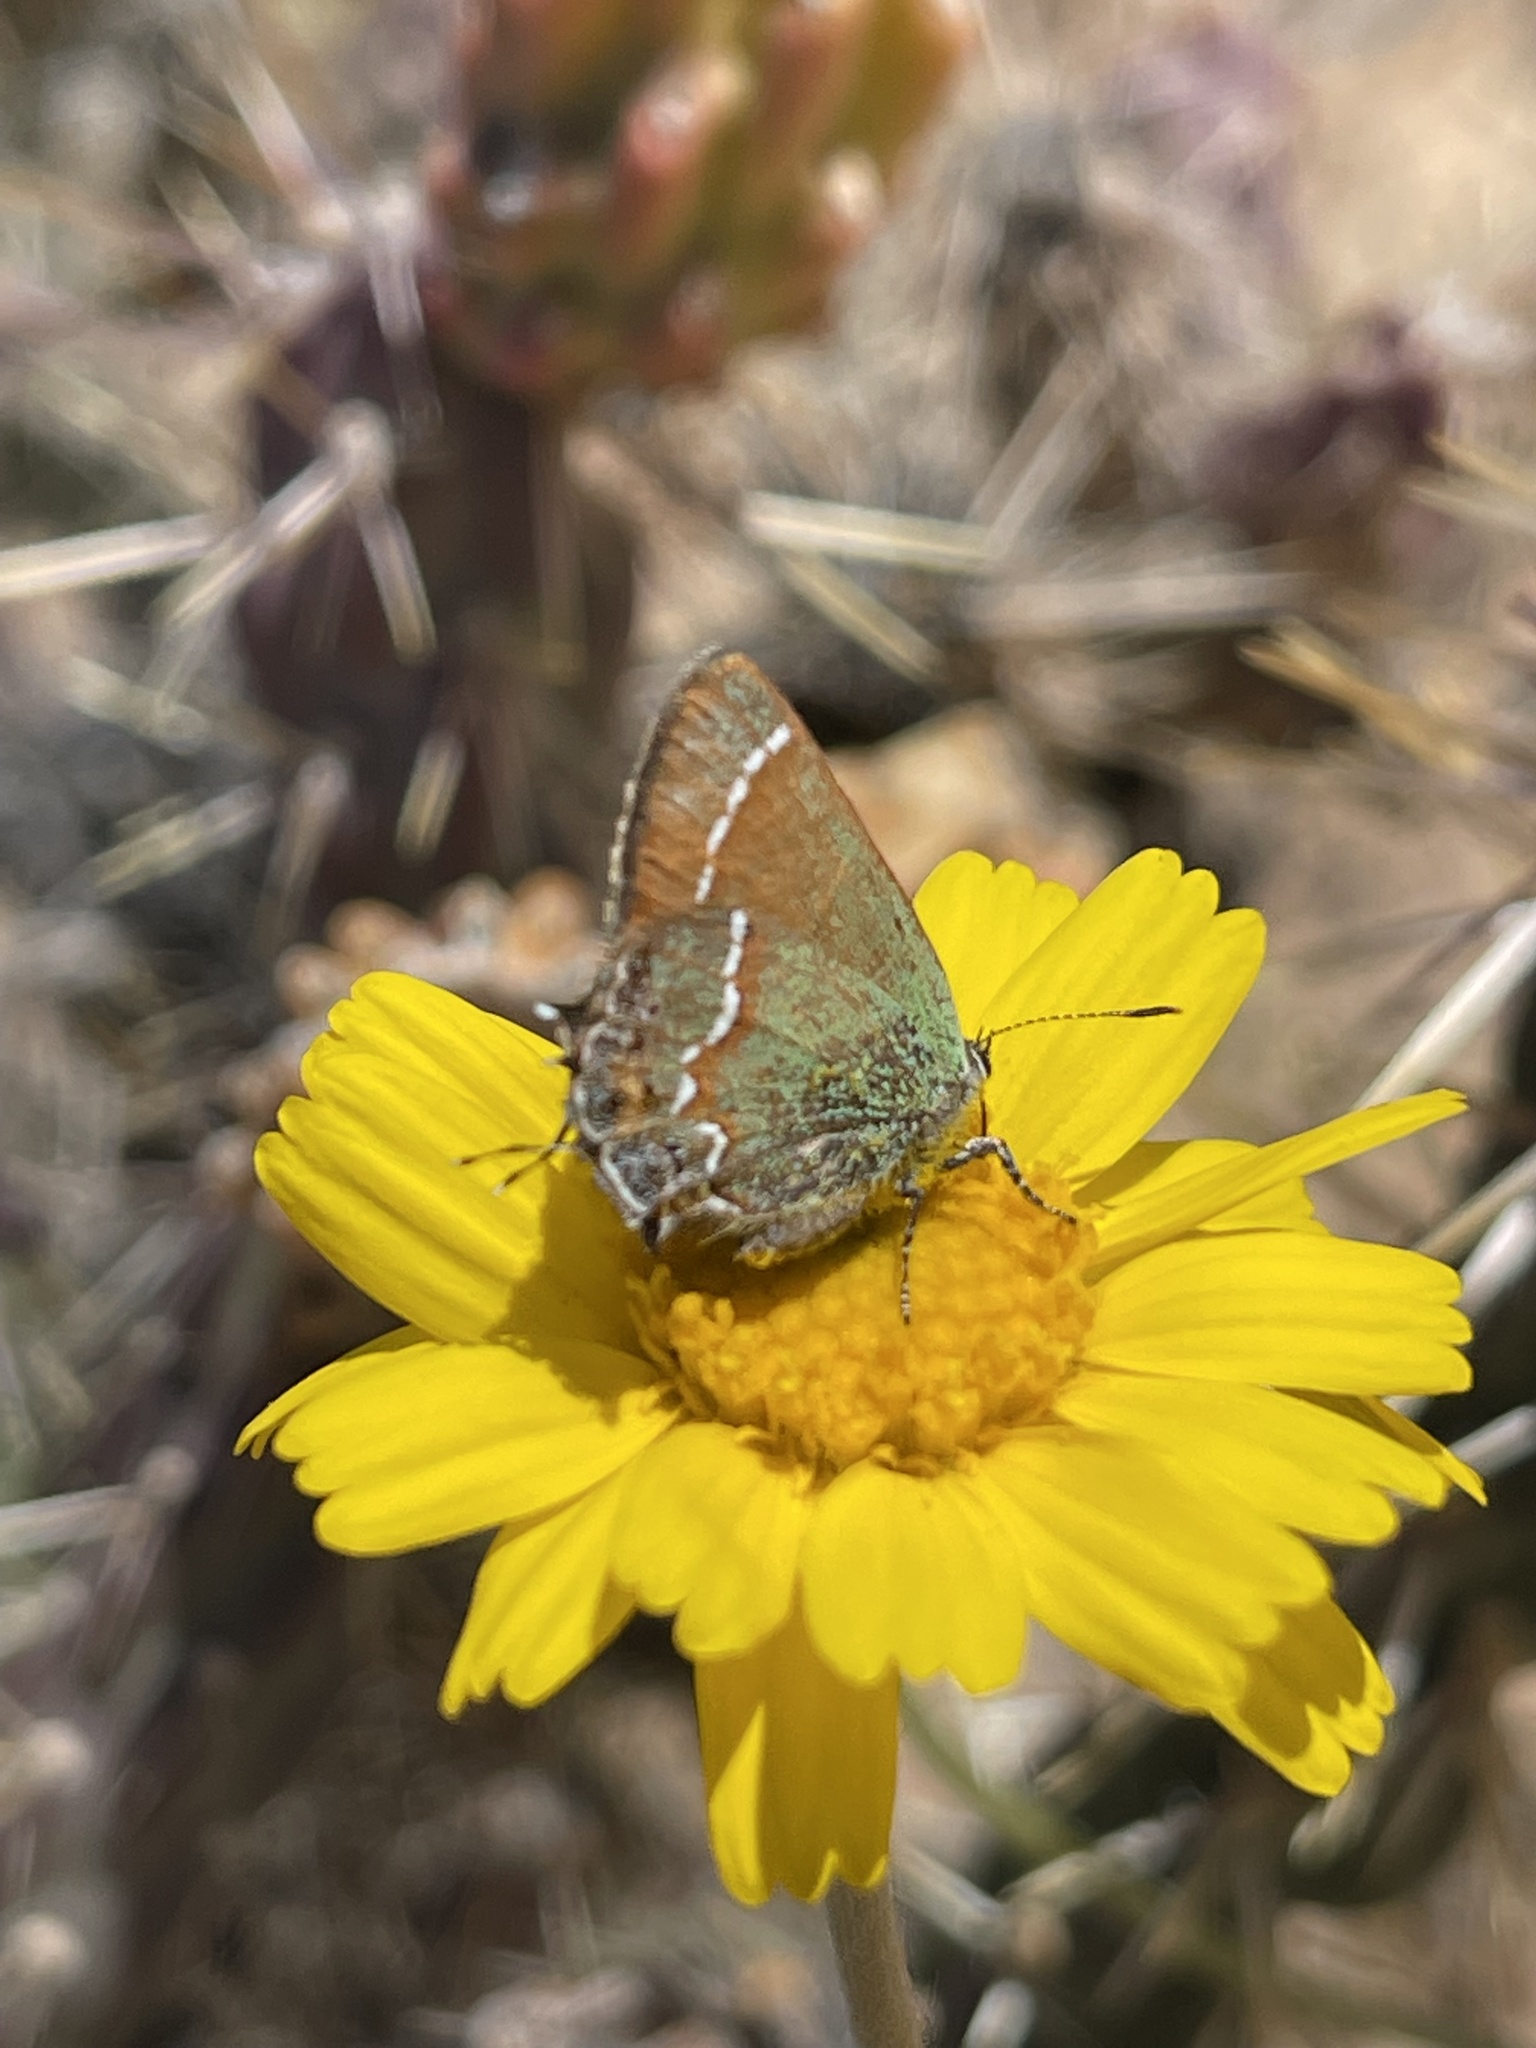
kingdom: Animalia
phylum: Arthropoda
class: Insecta
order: Lepidoptera
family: Lycaenidae
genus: Mitoura
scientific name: Mitoura siva
